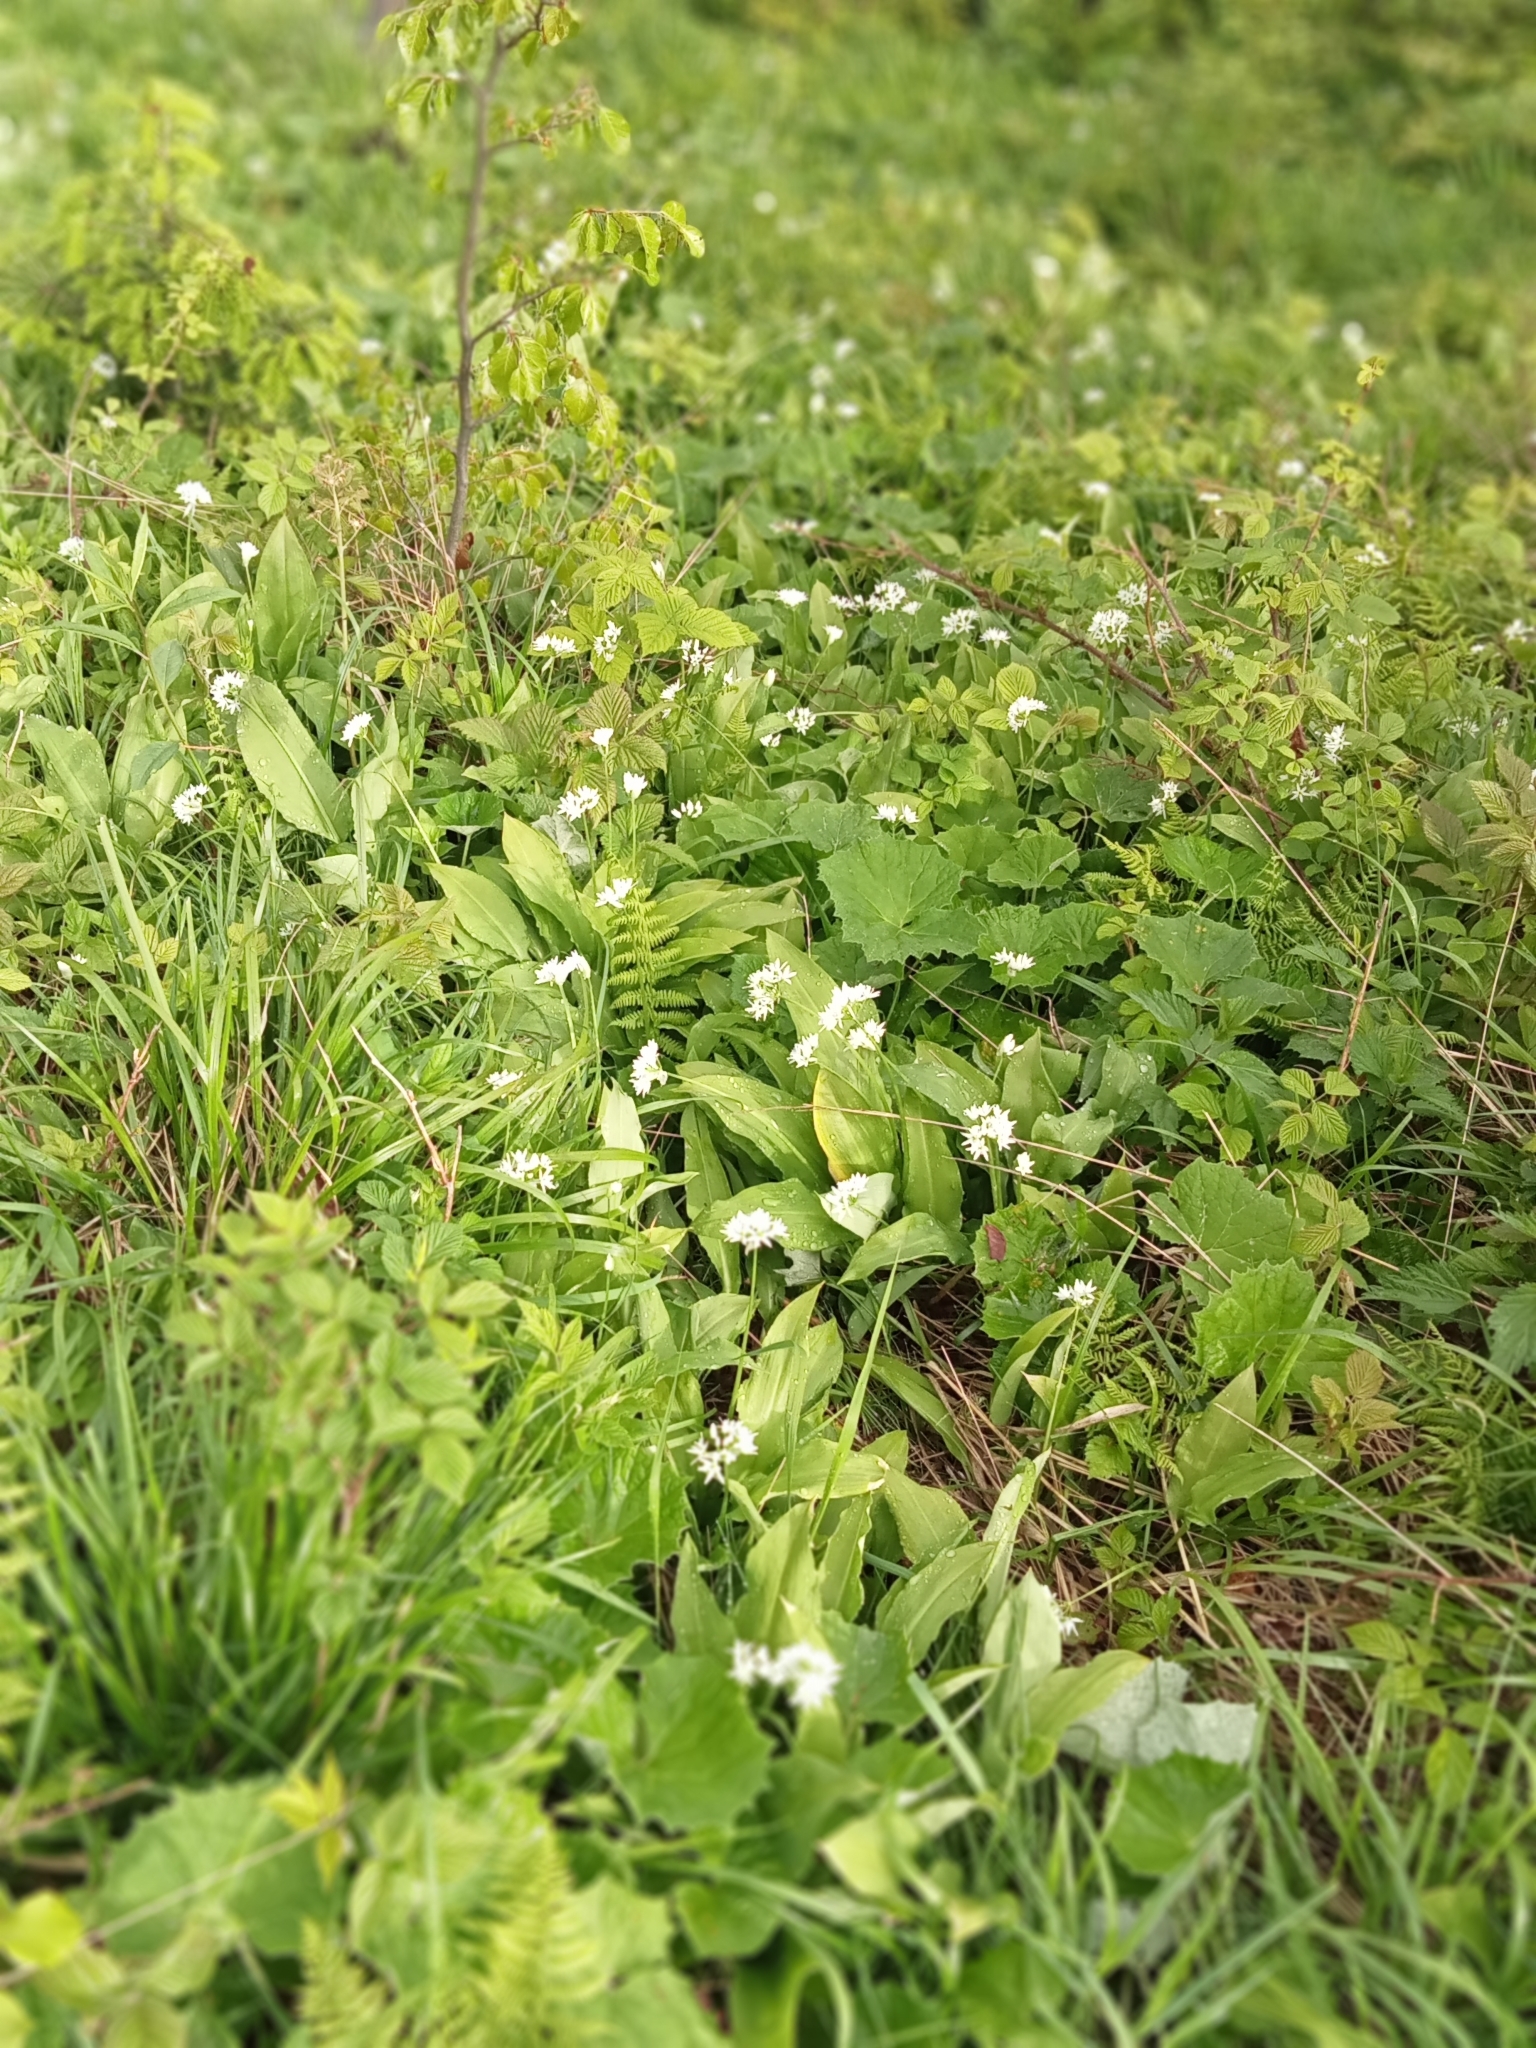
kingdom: Plantae
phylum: Tracheophyta
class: Liliopsida
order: Asparagales
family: Amaryllidaceae
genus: Allium
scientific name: Allium ursinum
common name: Ramsons
